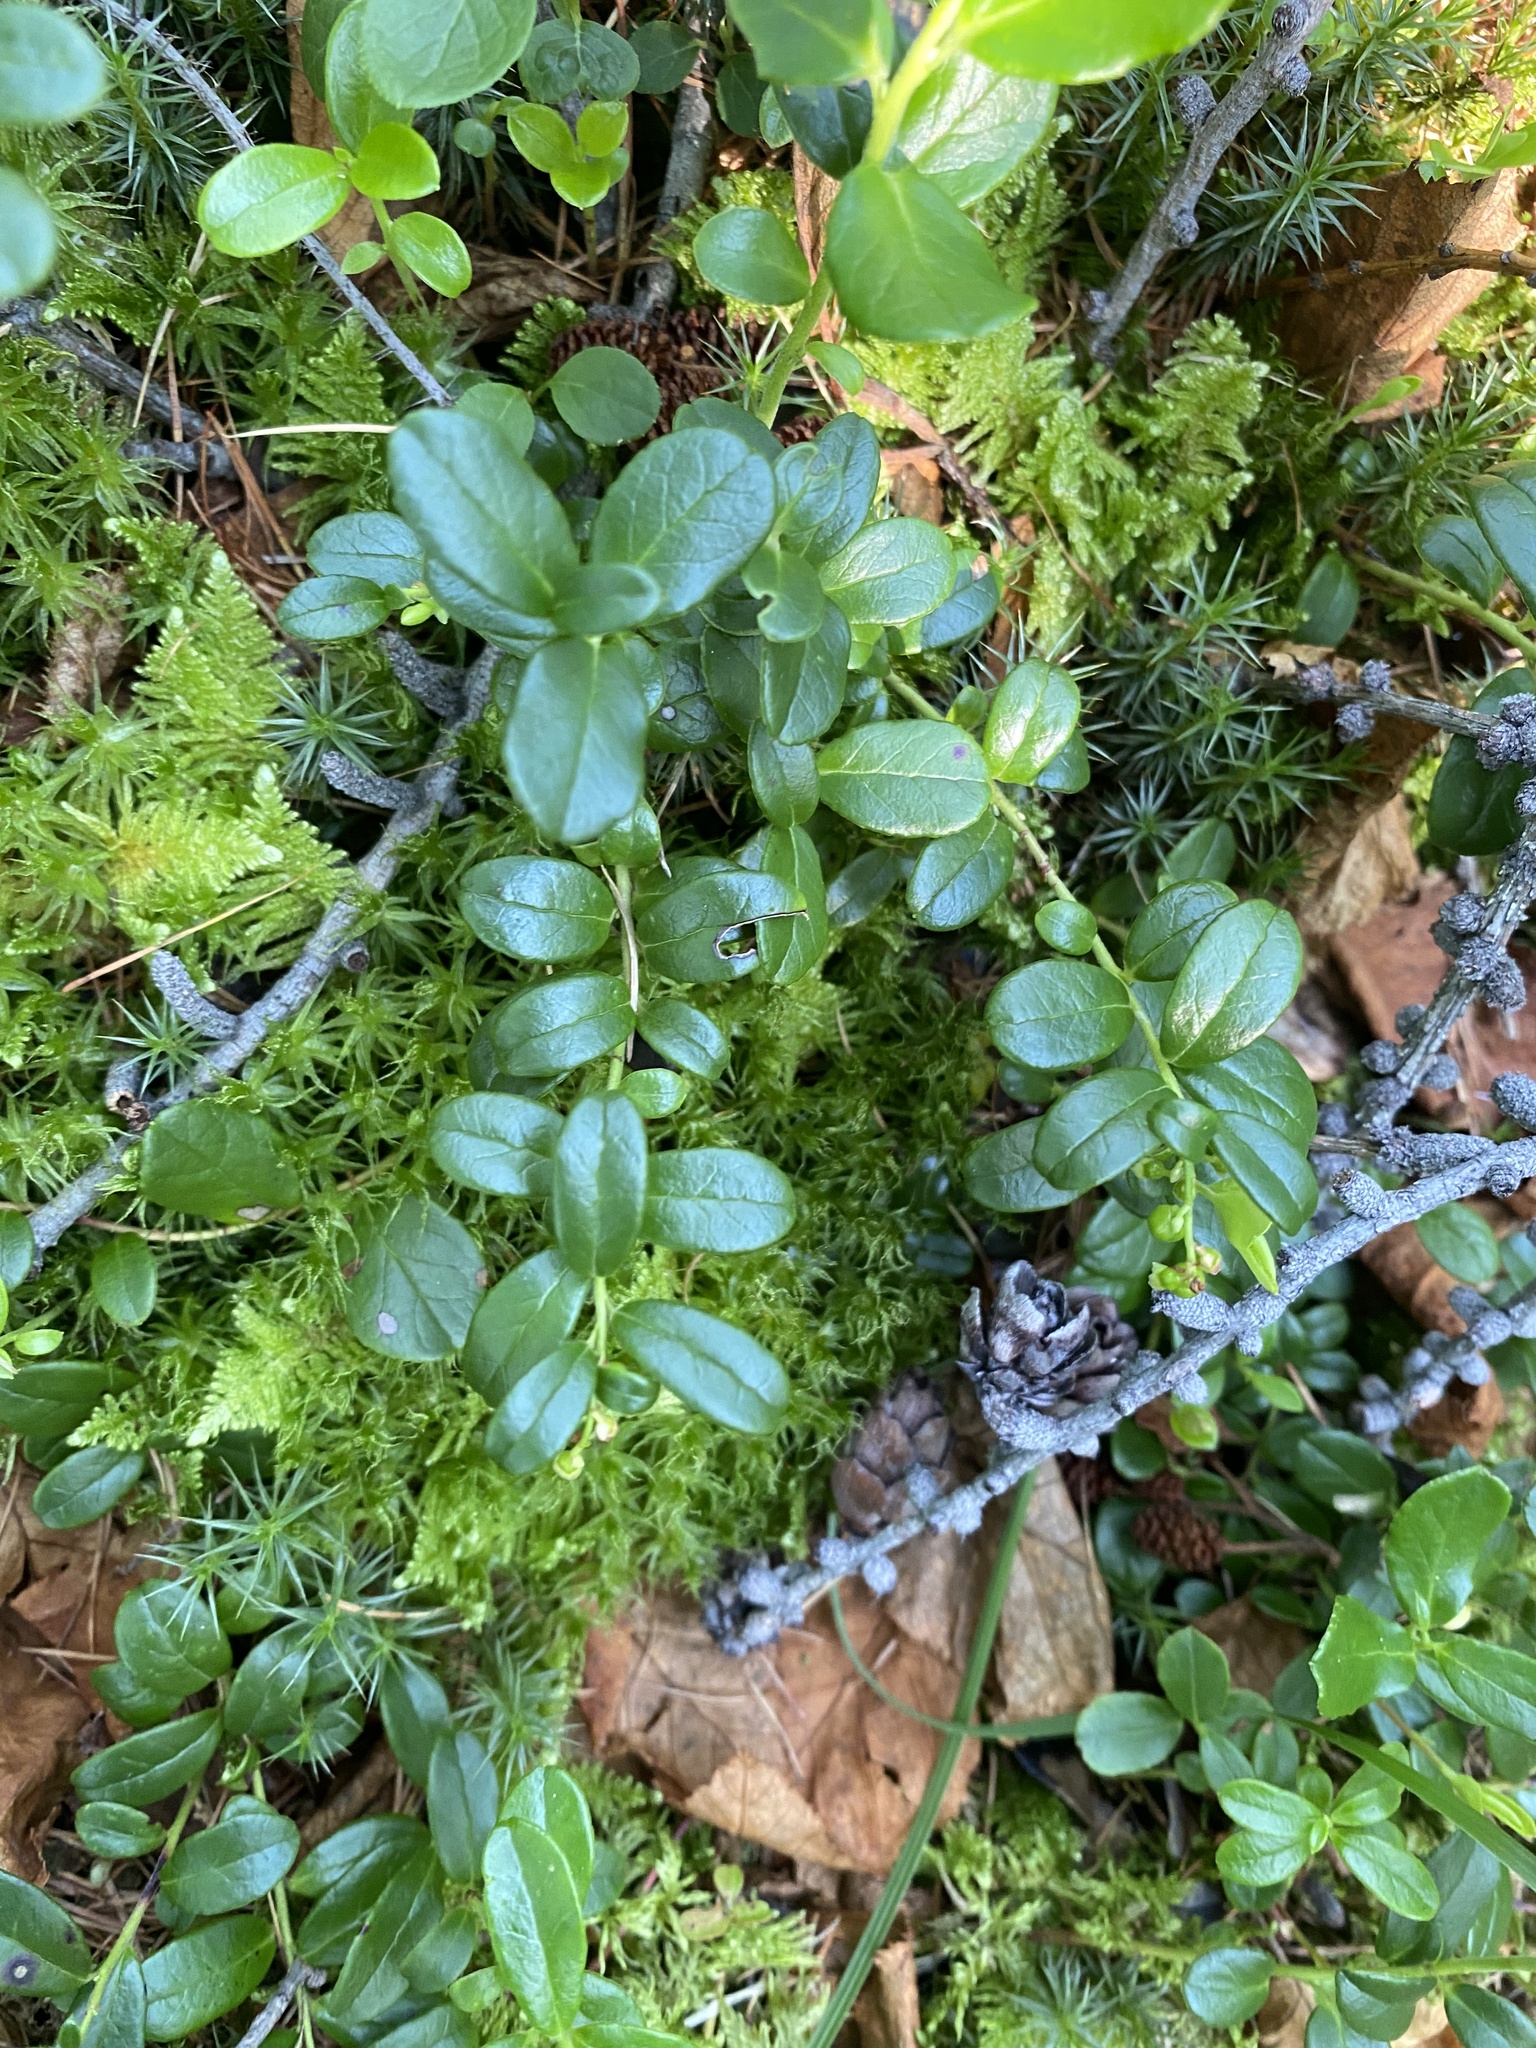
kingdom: Plantae
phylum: Tracheophyta
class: Magnoliopsida
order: Ericales
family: Ericaceae
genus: Vaccinium
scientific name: Vaccinium vitis-idaea
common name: Cowberry
